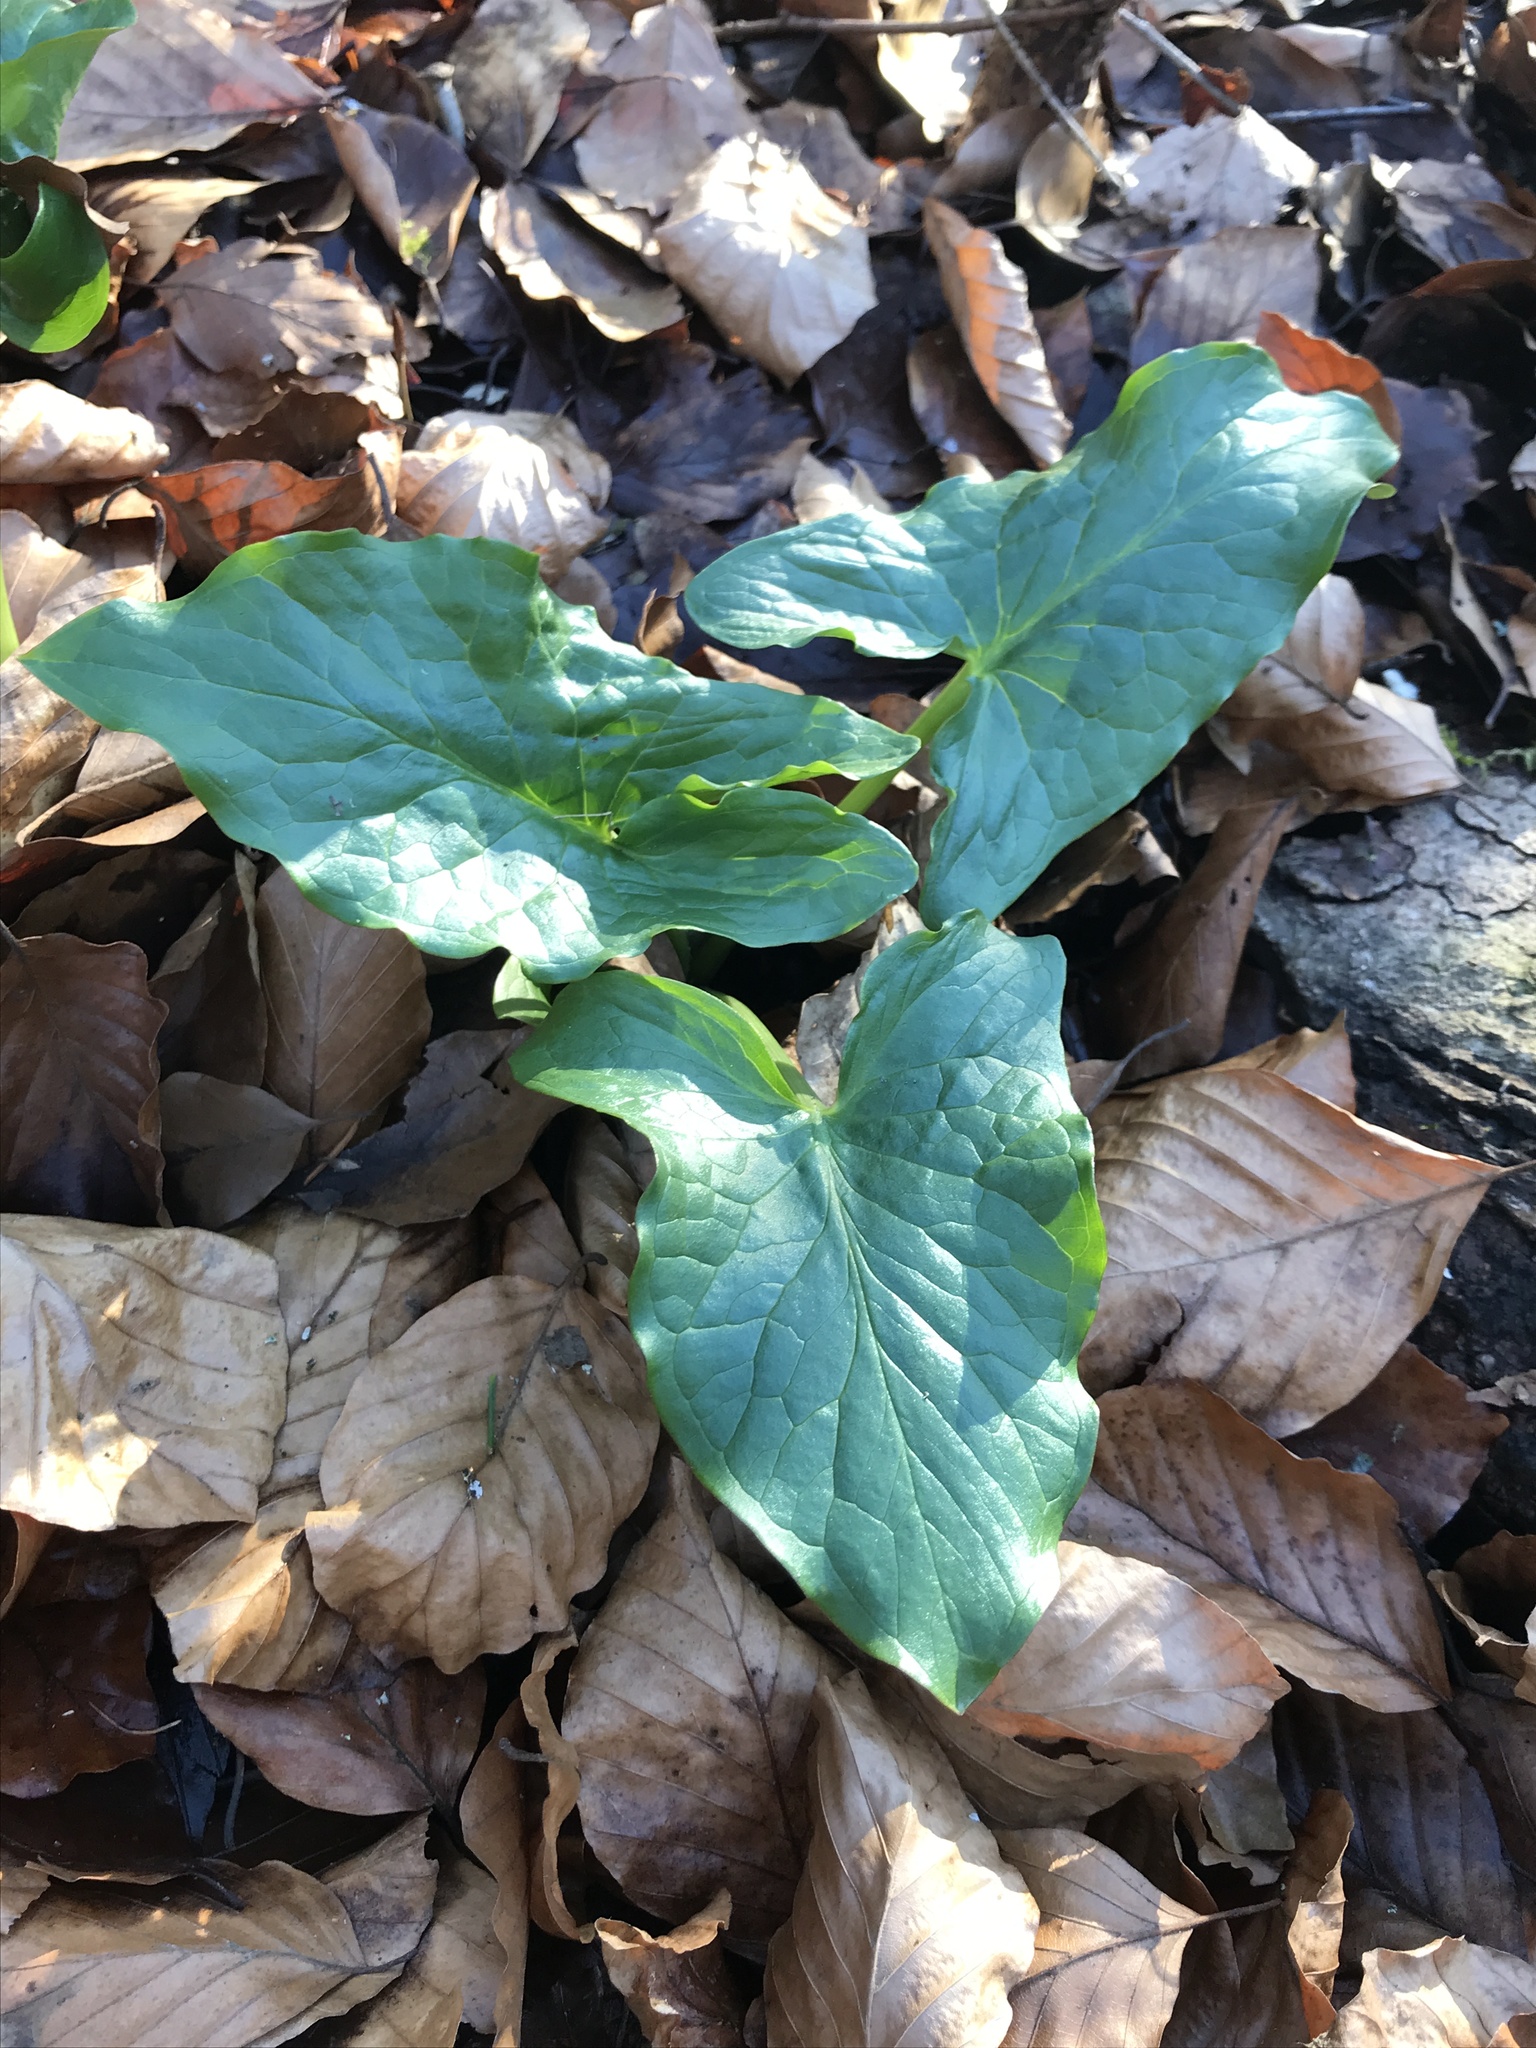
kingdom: Plantae
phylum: Tracheophyta
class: Liliopsida
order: Alismatales
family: Araceae
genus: Arum
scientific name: Arum maculatum
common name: Lords-and-ladies
